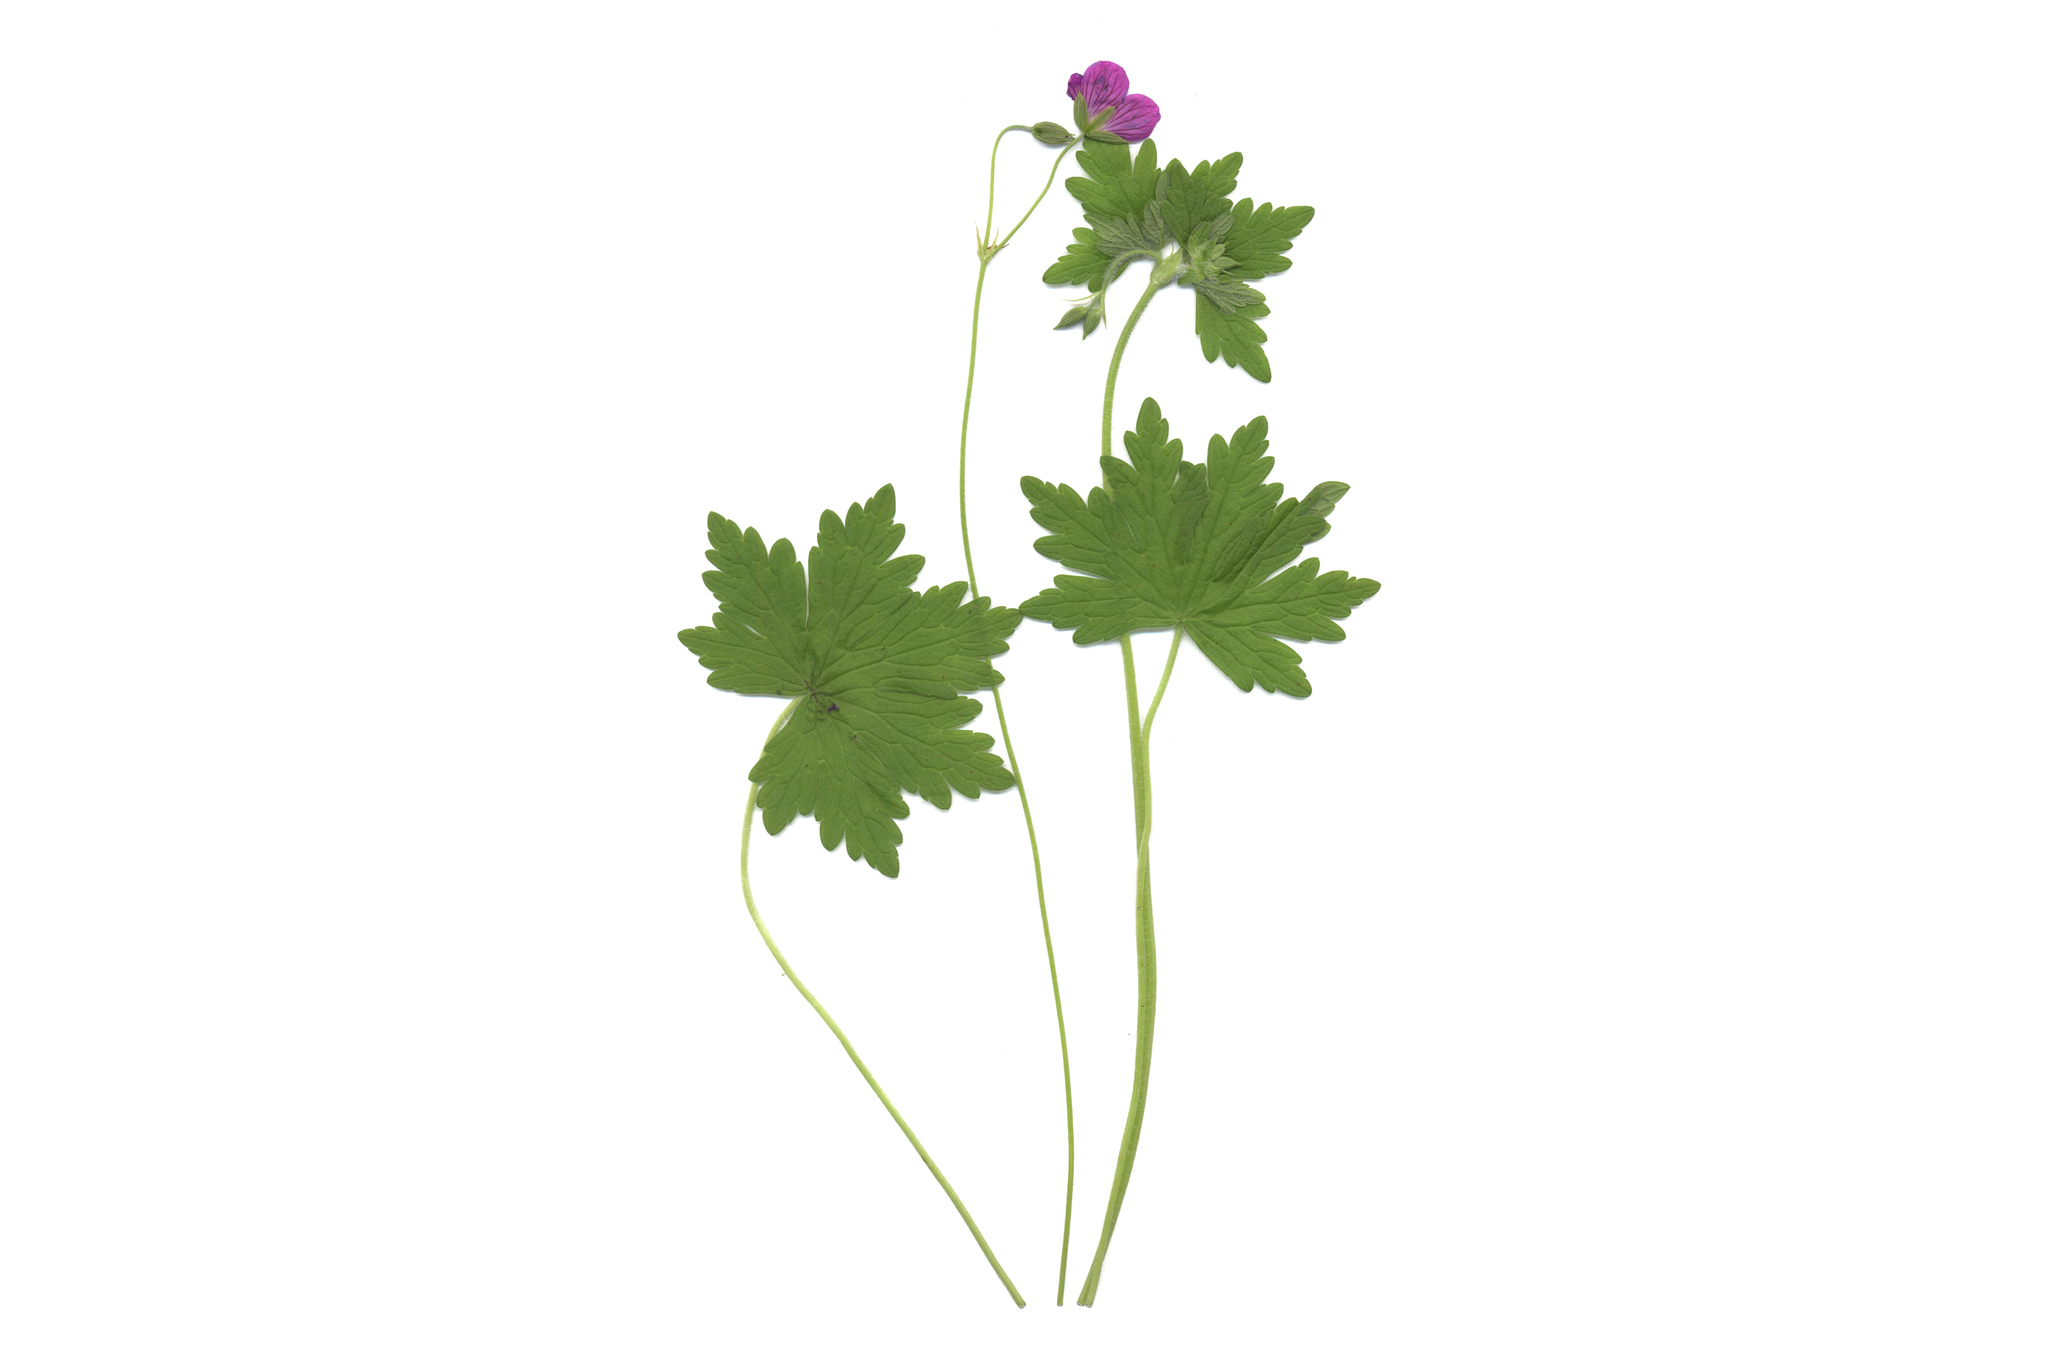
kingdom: Plantae
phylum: Tracheophyta
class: Magnoliopsida
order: Geraniales
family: Geraniaceae
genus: Geranium
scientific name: Geranium palustre
